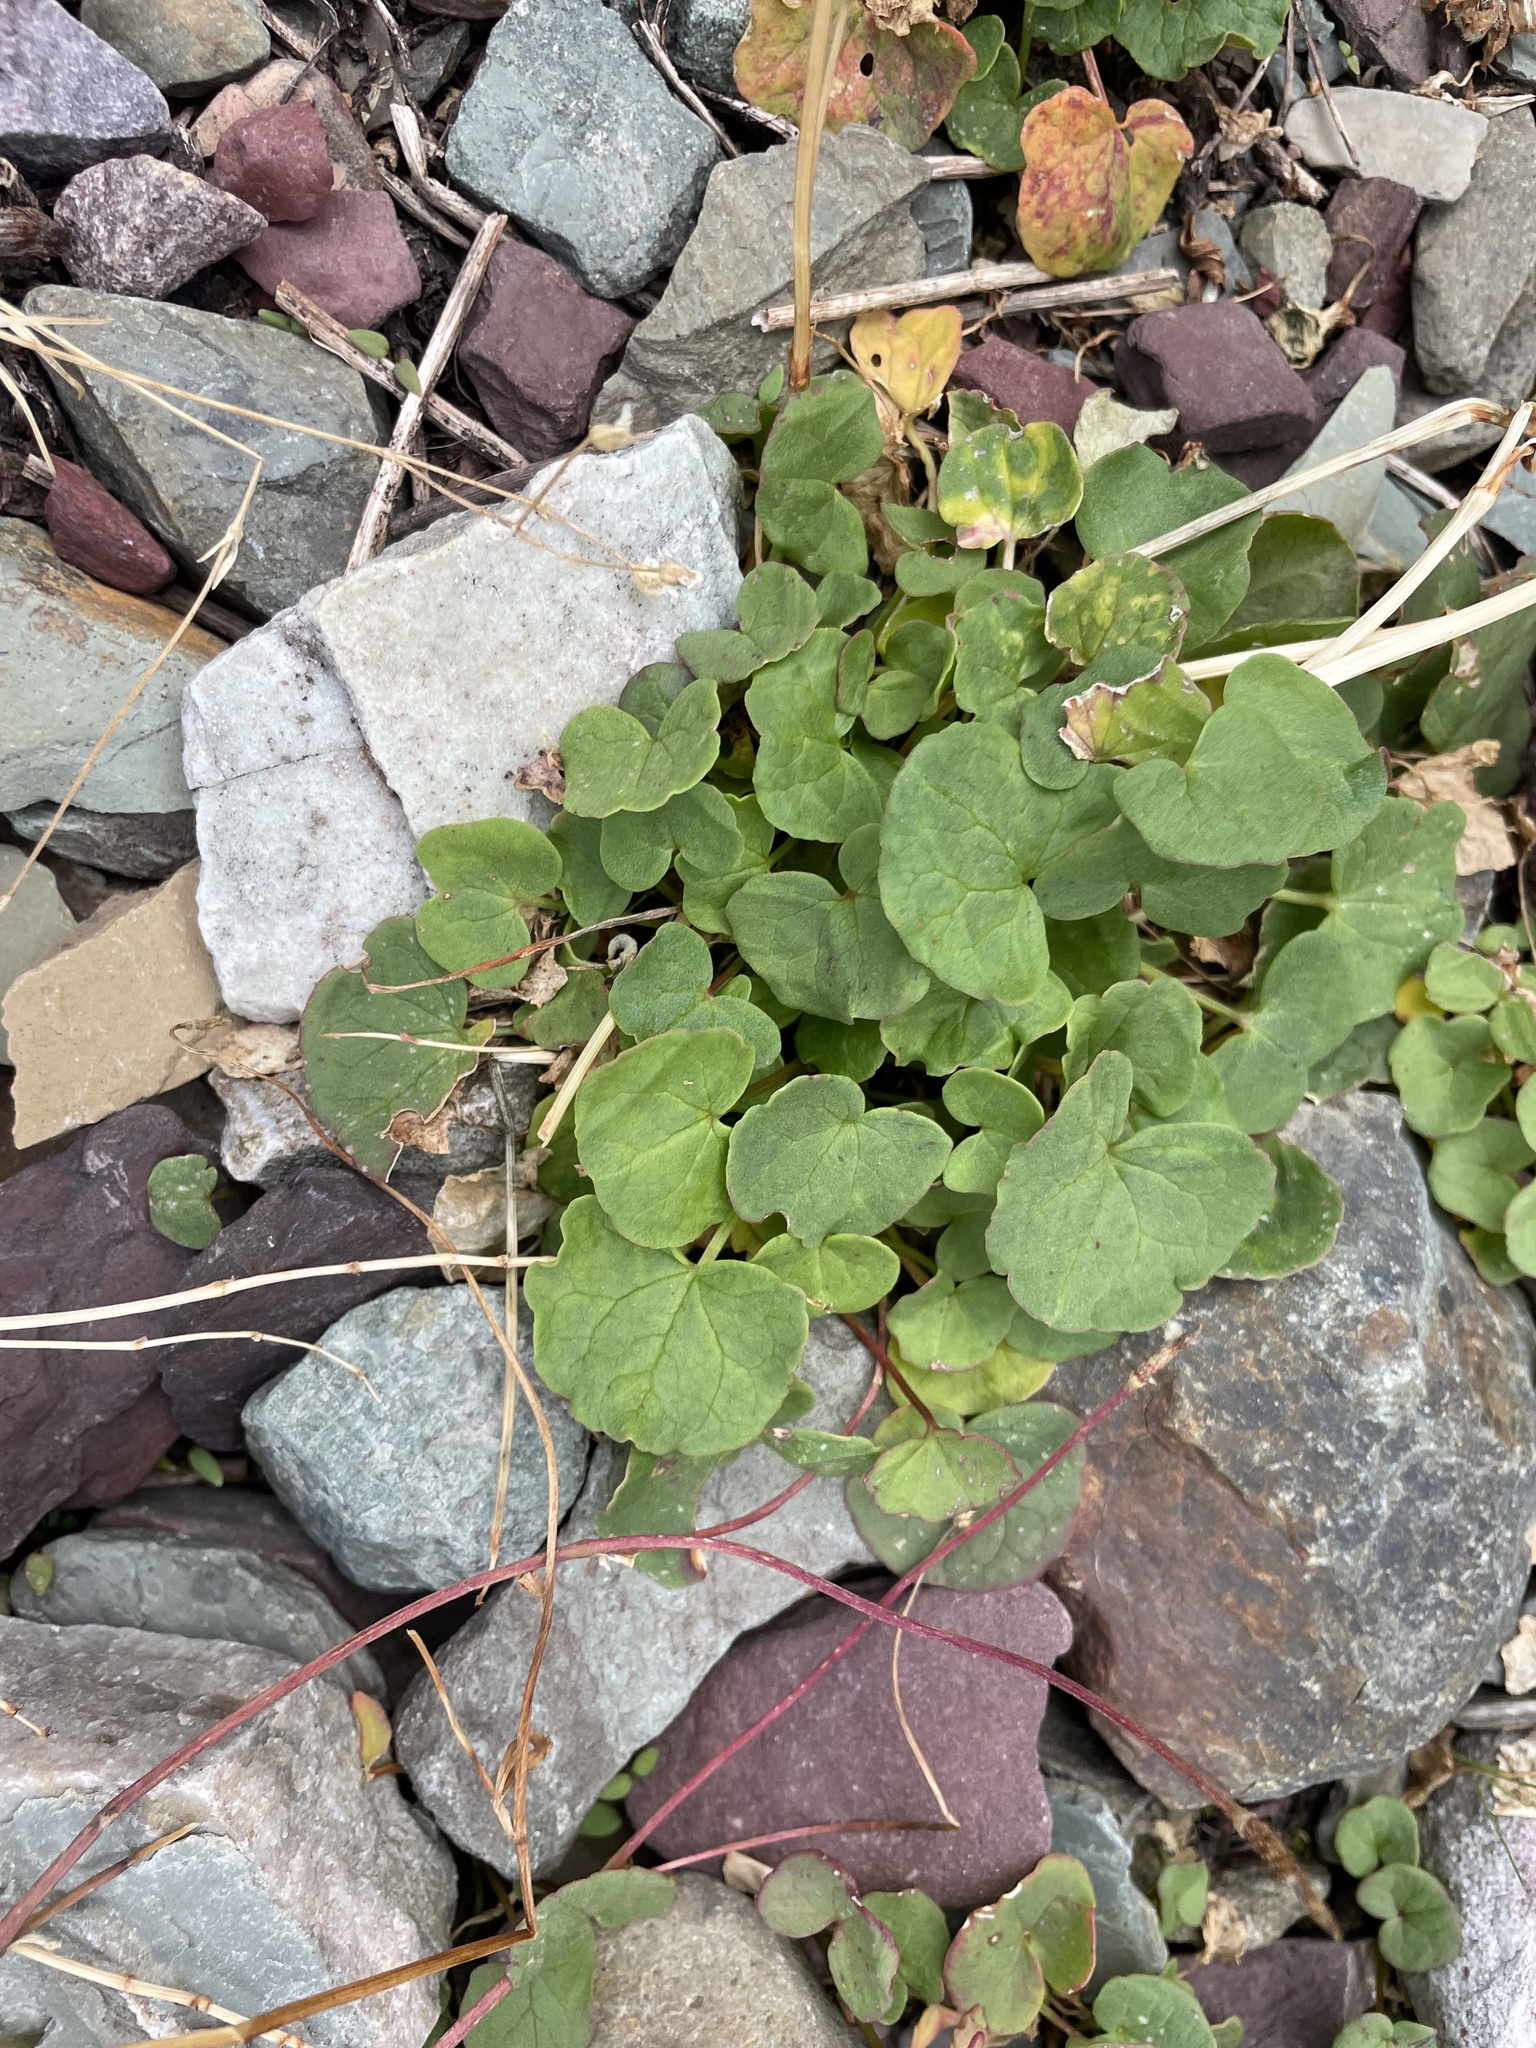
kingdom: Plantae
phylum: Tracheophyta
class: Magnoliopsida
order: Caryophyllales
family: Polygonaceae
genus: Oxyria
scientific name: Oxyria digyna
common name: Alpine mountain-sorrel
